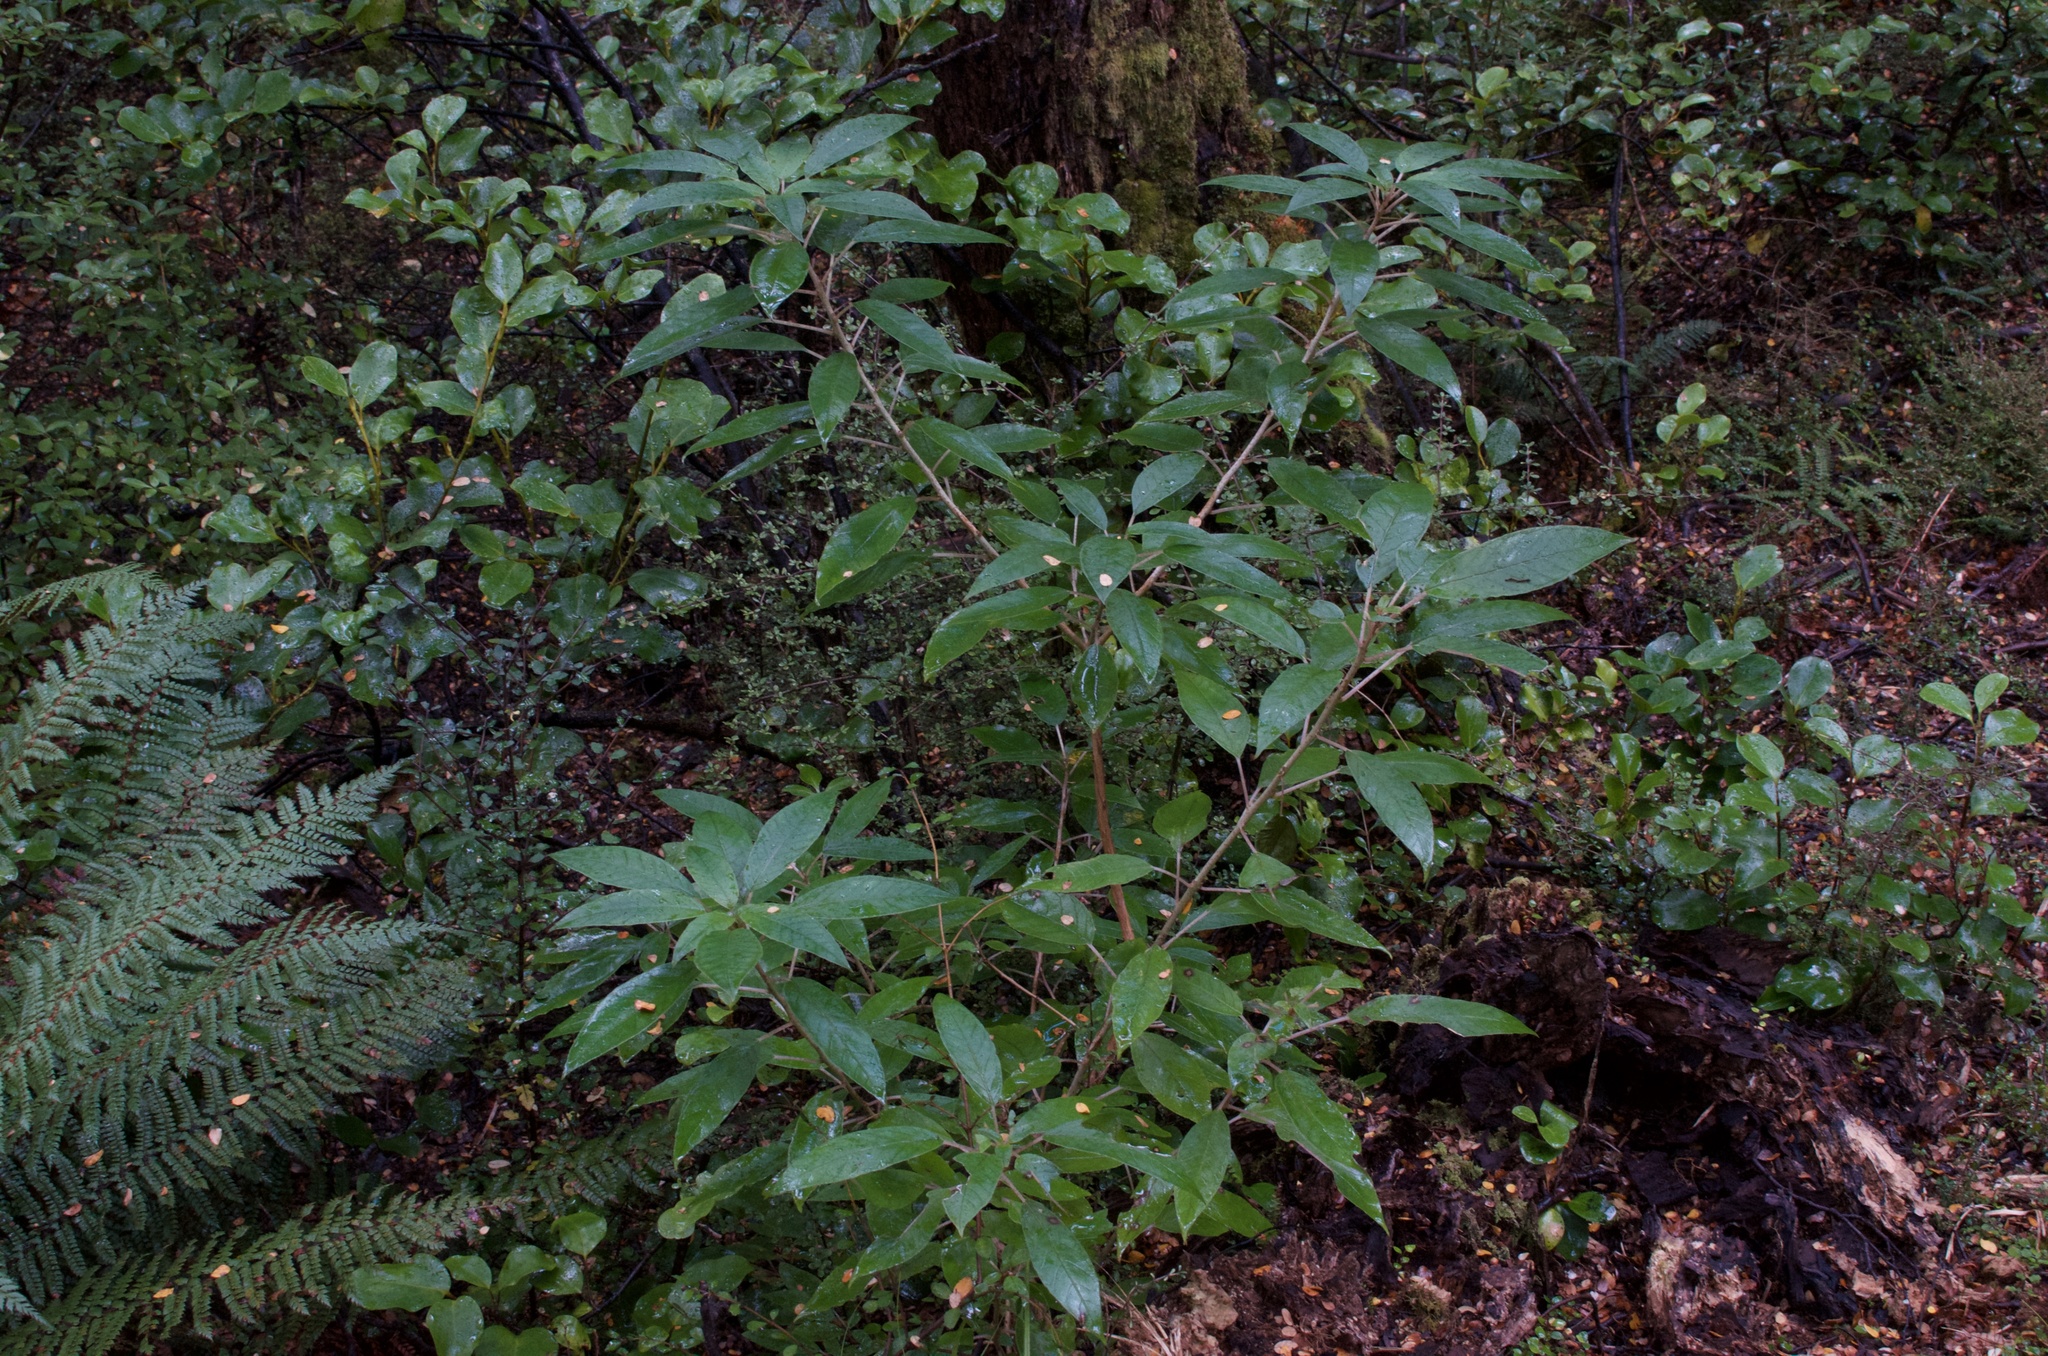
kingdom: Plantae
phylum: Tracheophyta
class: Magnoliopsida
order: Myrtales
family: Onagraceae
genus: Fuchsia
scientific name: Fuchsia excorticata
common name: Tree fuchsia
